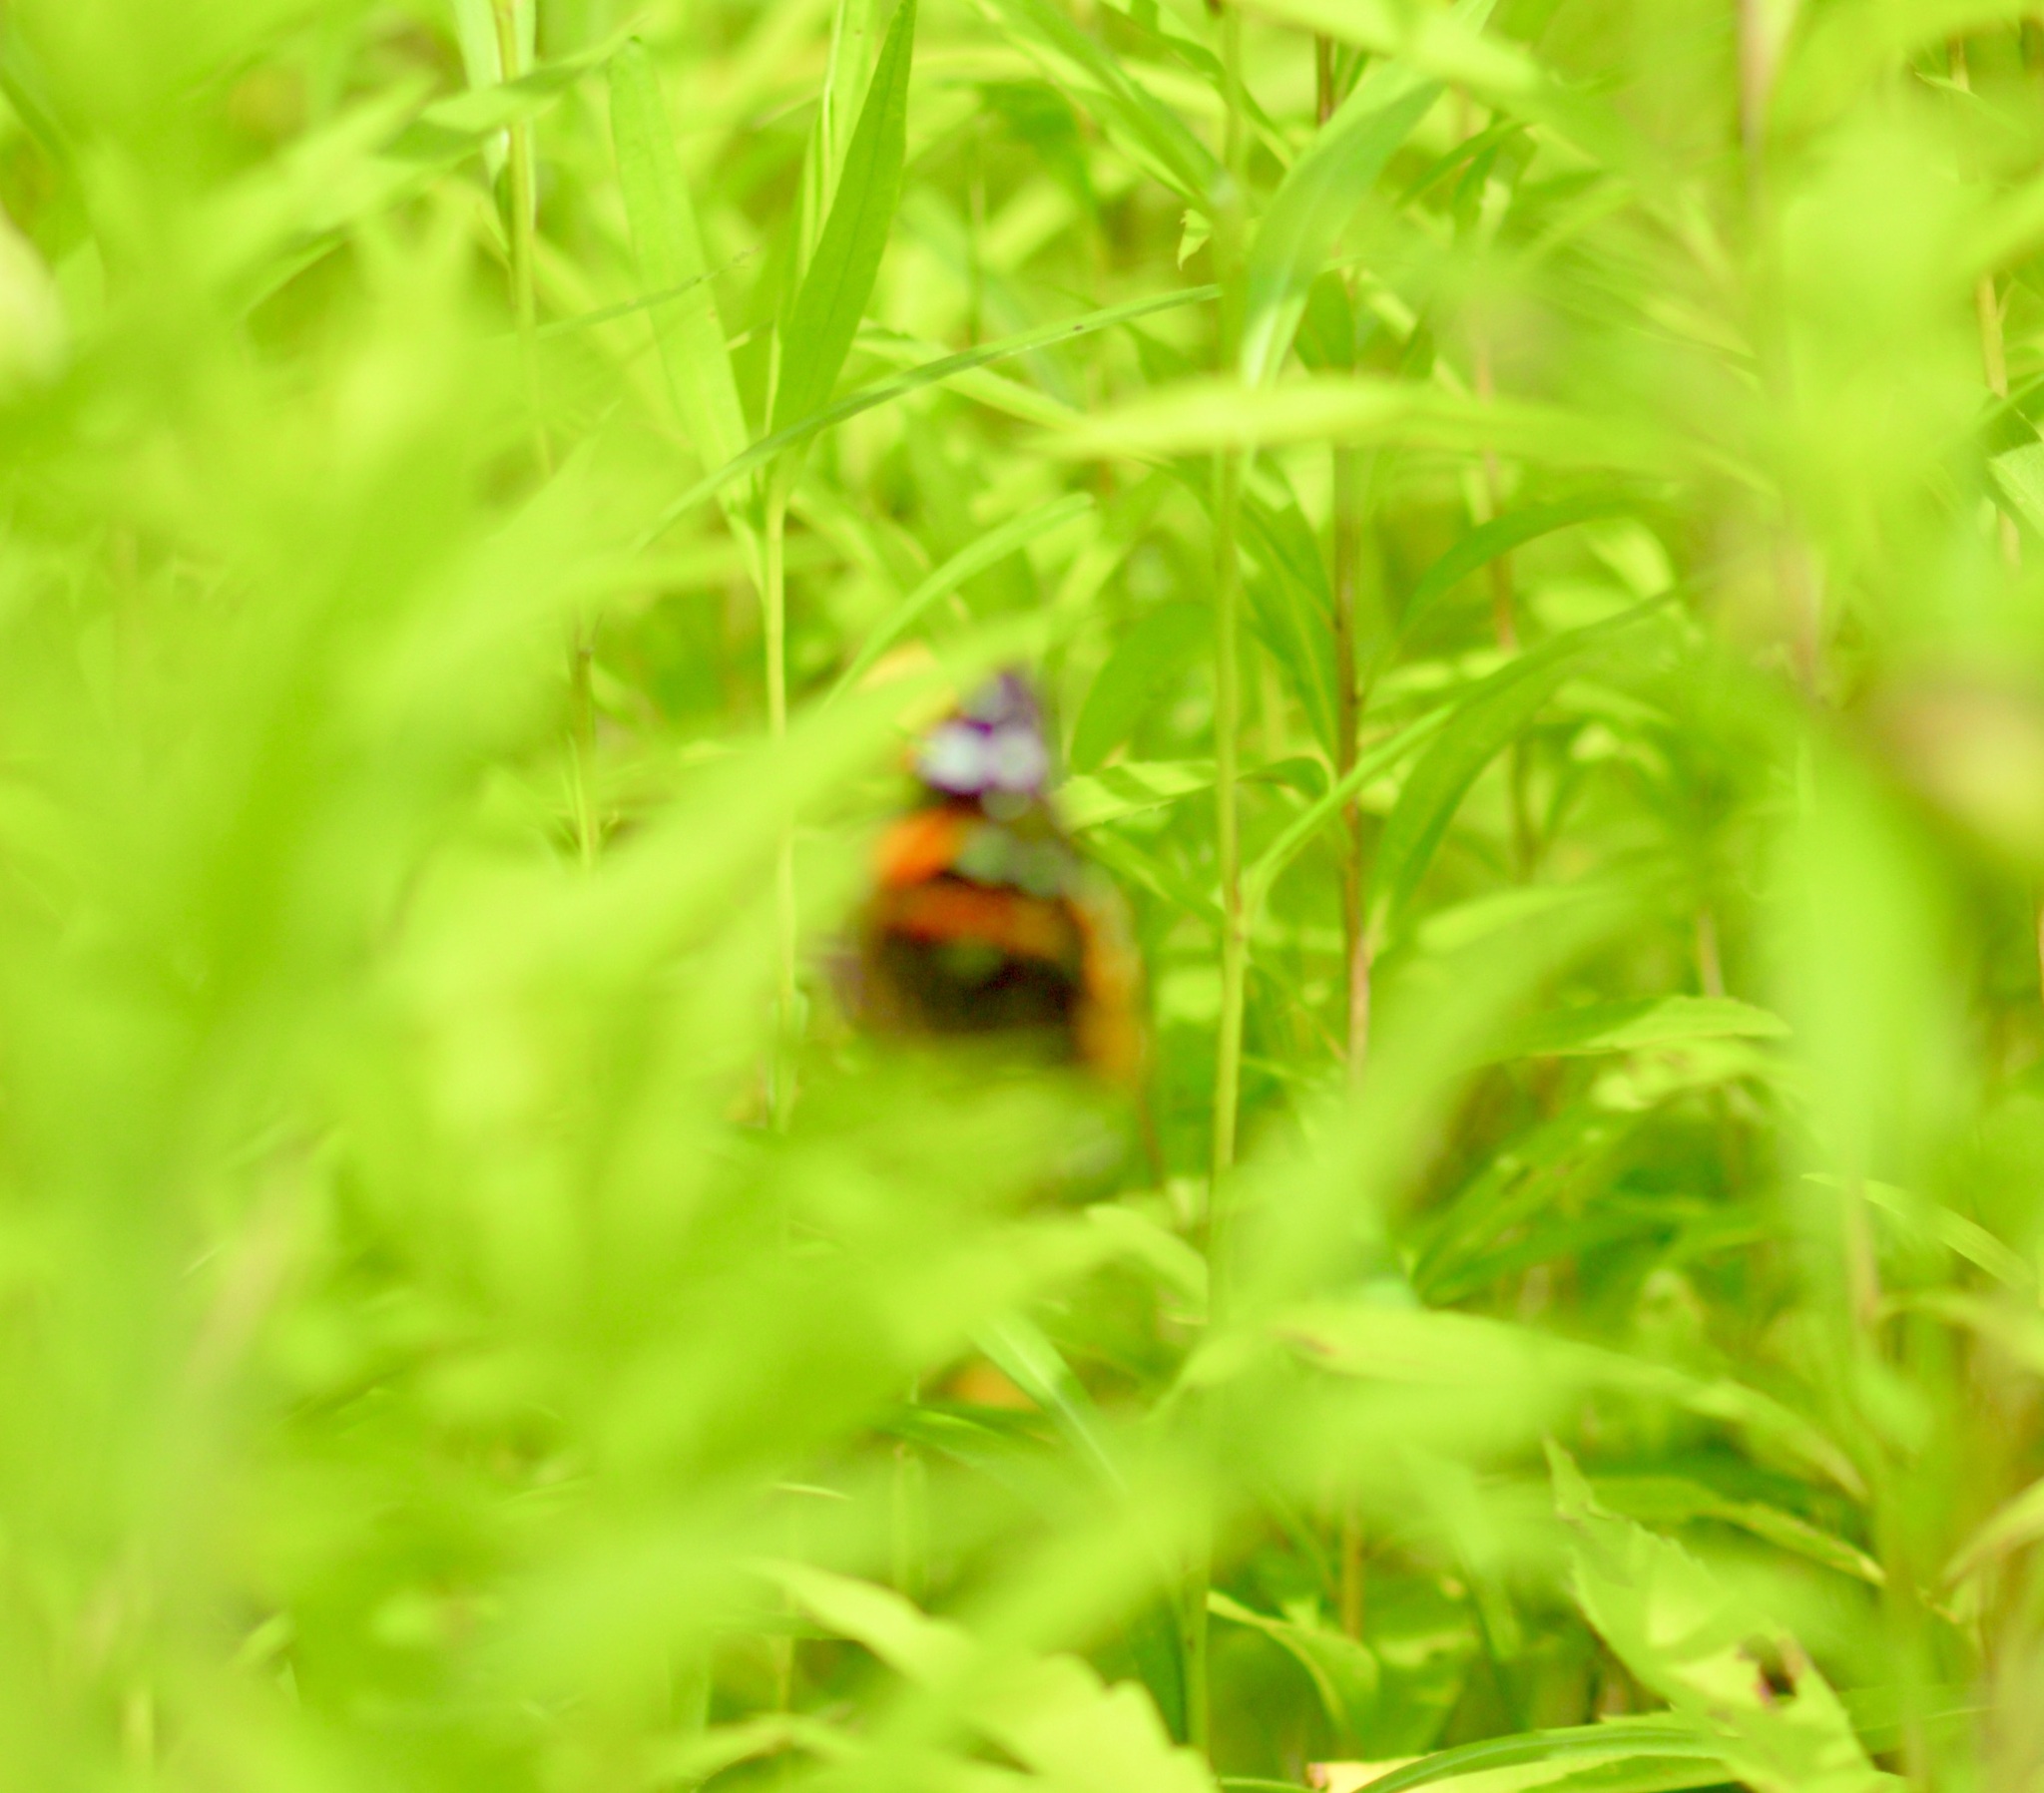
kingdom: Animalia
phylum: Arthropoda
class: Insecta
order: Lepidoptera
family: Nymphalidae
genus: Vanessa
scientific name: Vanessa atalanta
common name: Red admiral
